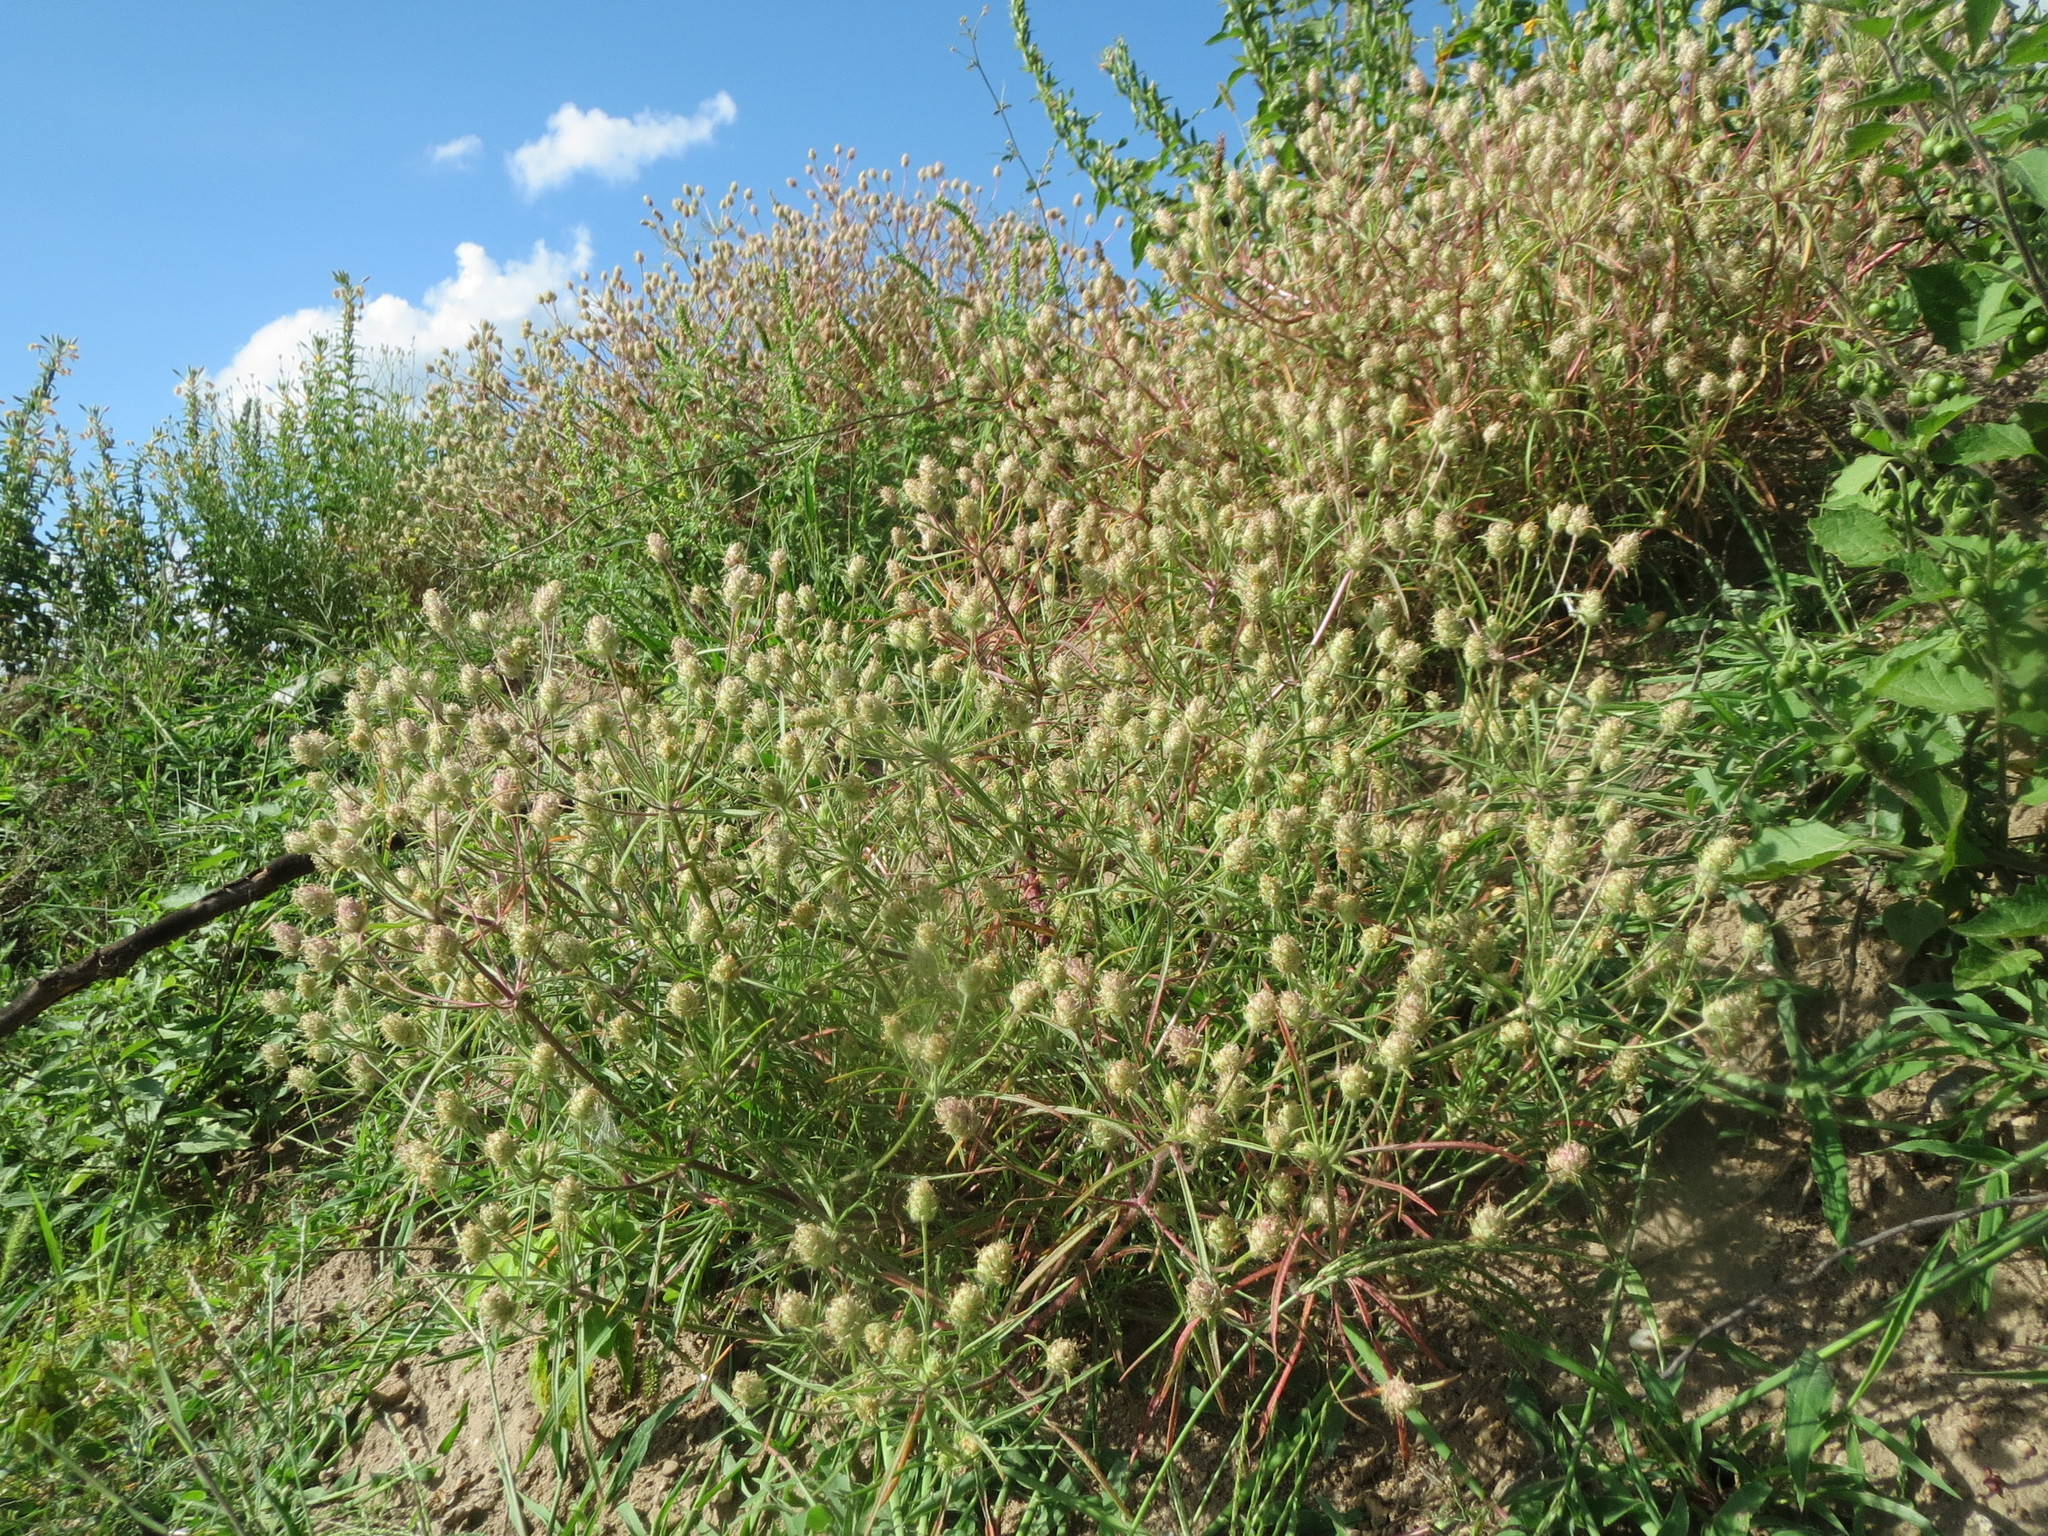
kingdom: Plantae
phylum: Tracheophyta
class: Magnoliopsida
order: Lamiales
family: Plantaginaceae
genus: Plantago
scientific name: Plantago arenaria
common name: Branched plantain
